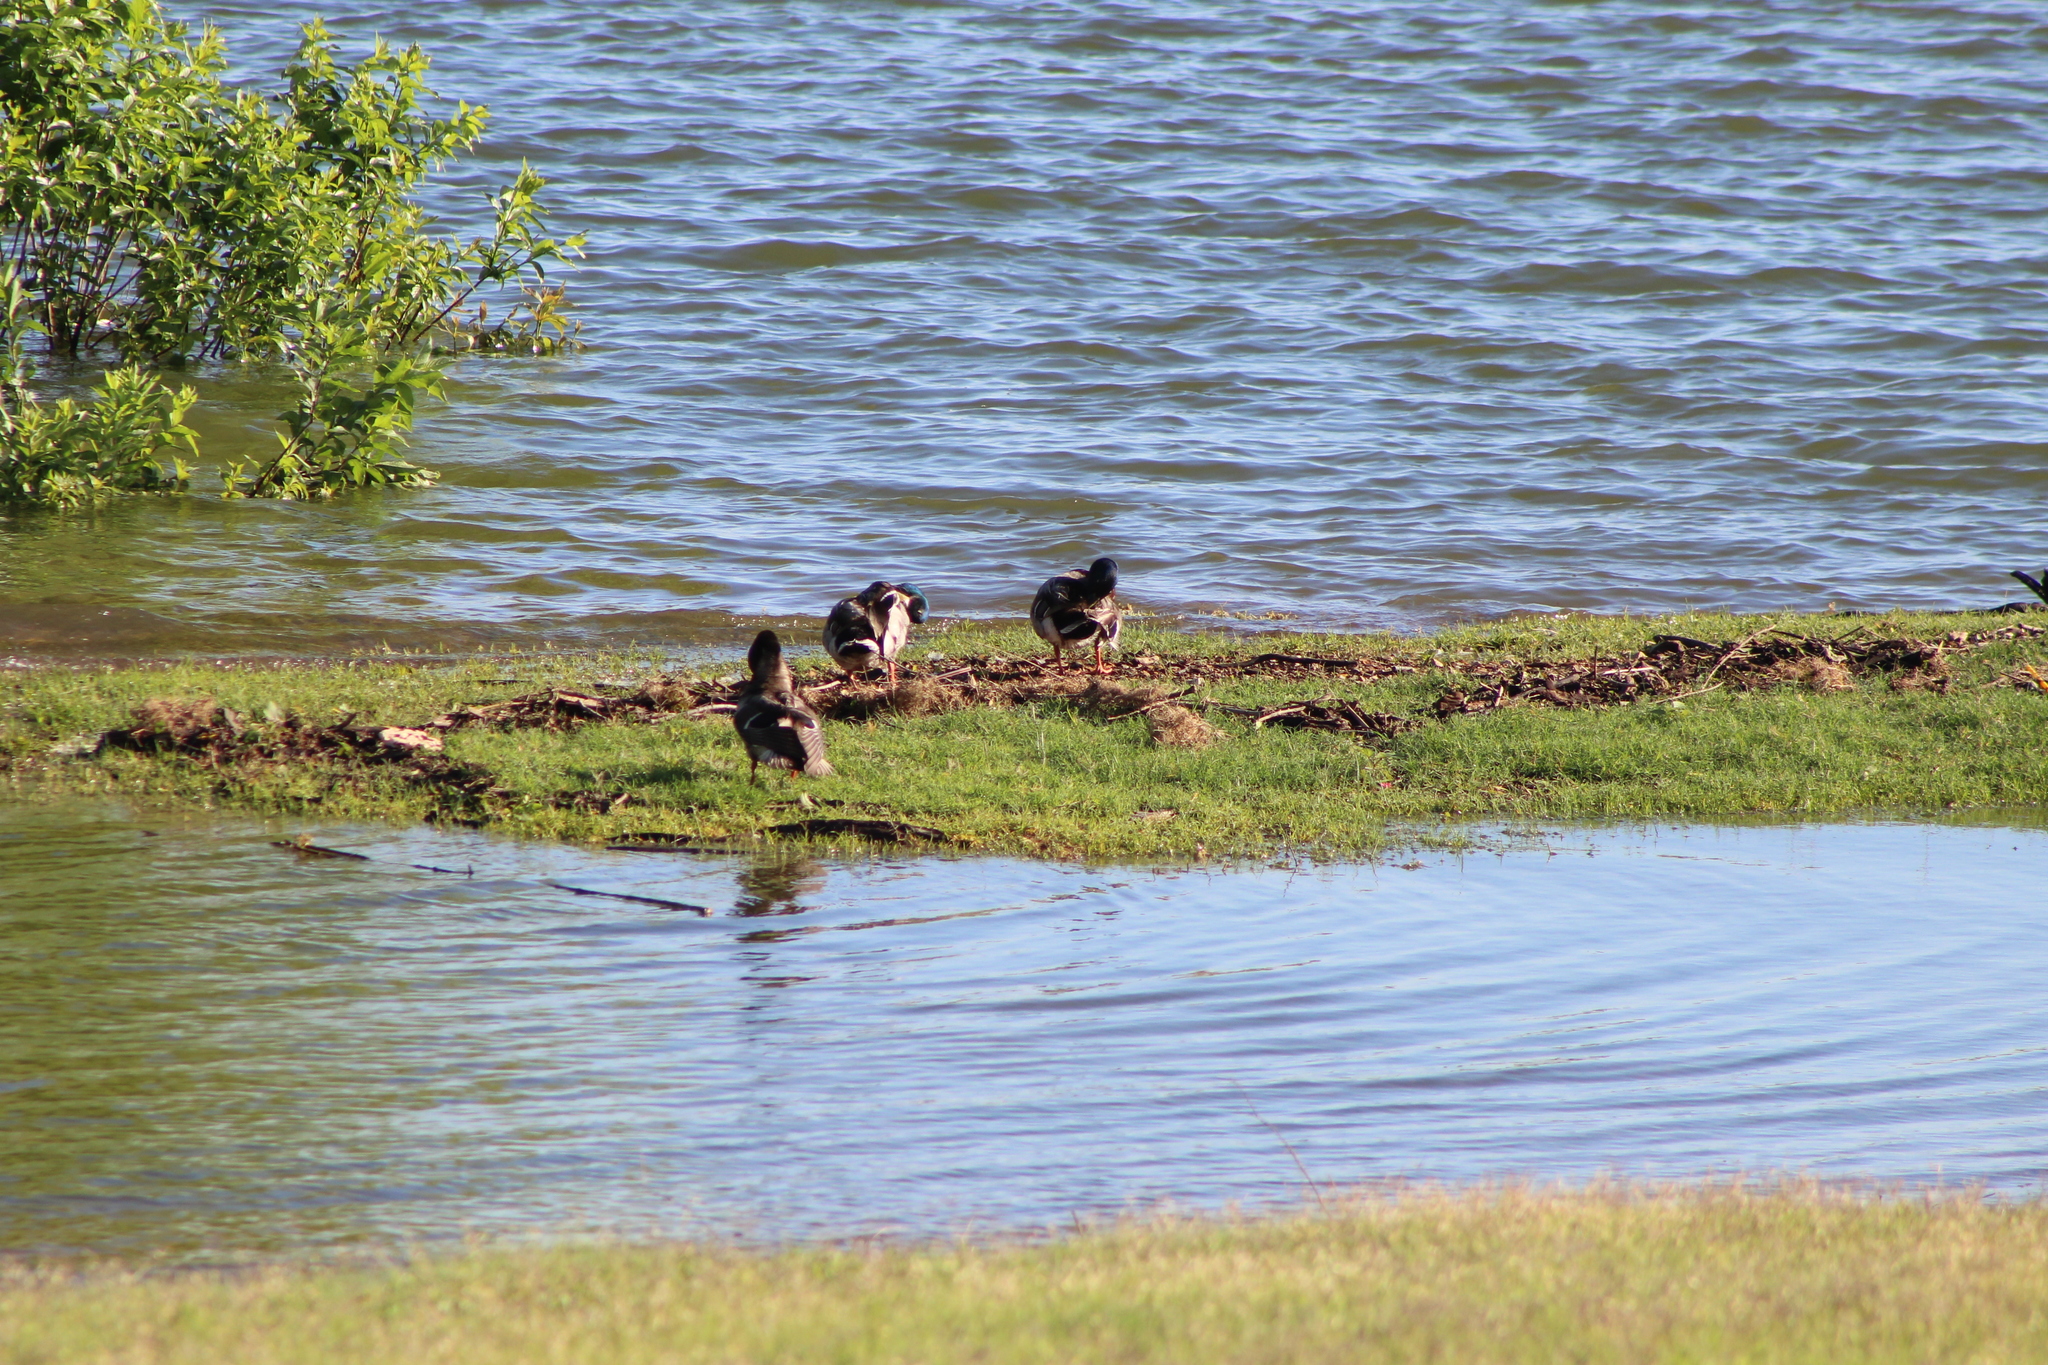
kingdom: Animalia
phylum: Chordata
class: Aves
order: Anseriformes
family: Anatidae
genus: Anas
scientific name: Anas platyrhynchos
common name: Mallard
